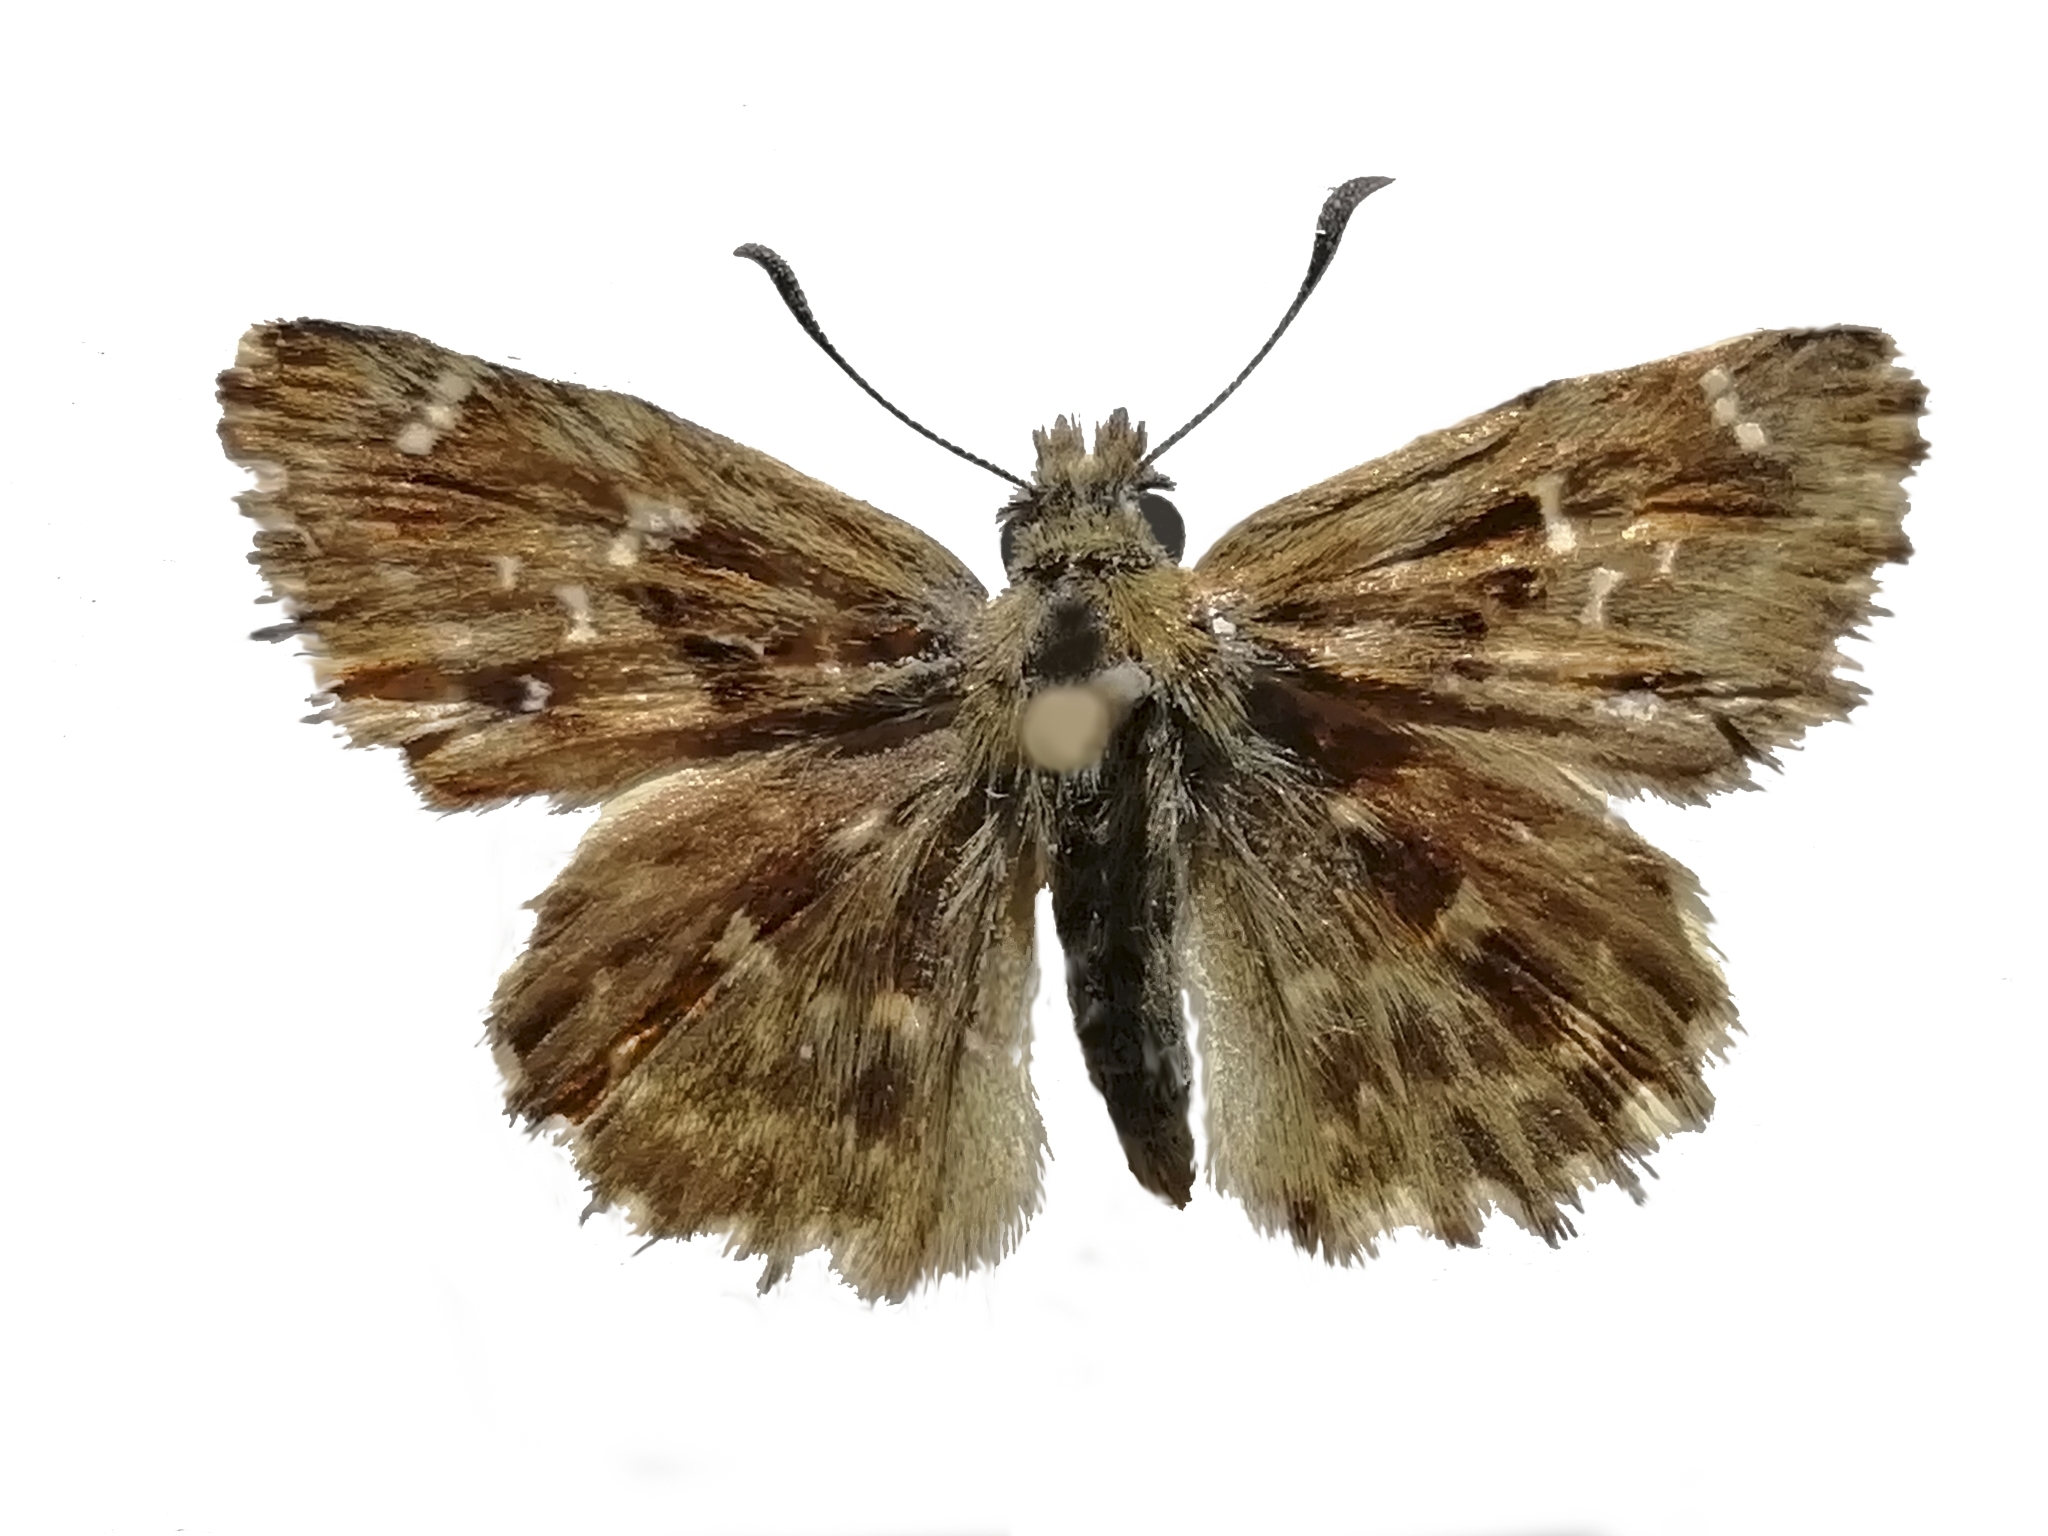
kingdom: Animalia
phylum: Arthropoda
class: Insecta
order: Lepidoptera
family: Hesperiidae
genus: Carcharodus
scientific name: Carcharodus alceae
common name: Mallow skipper
